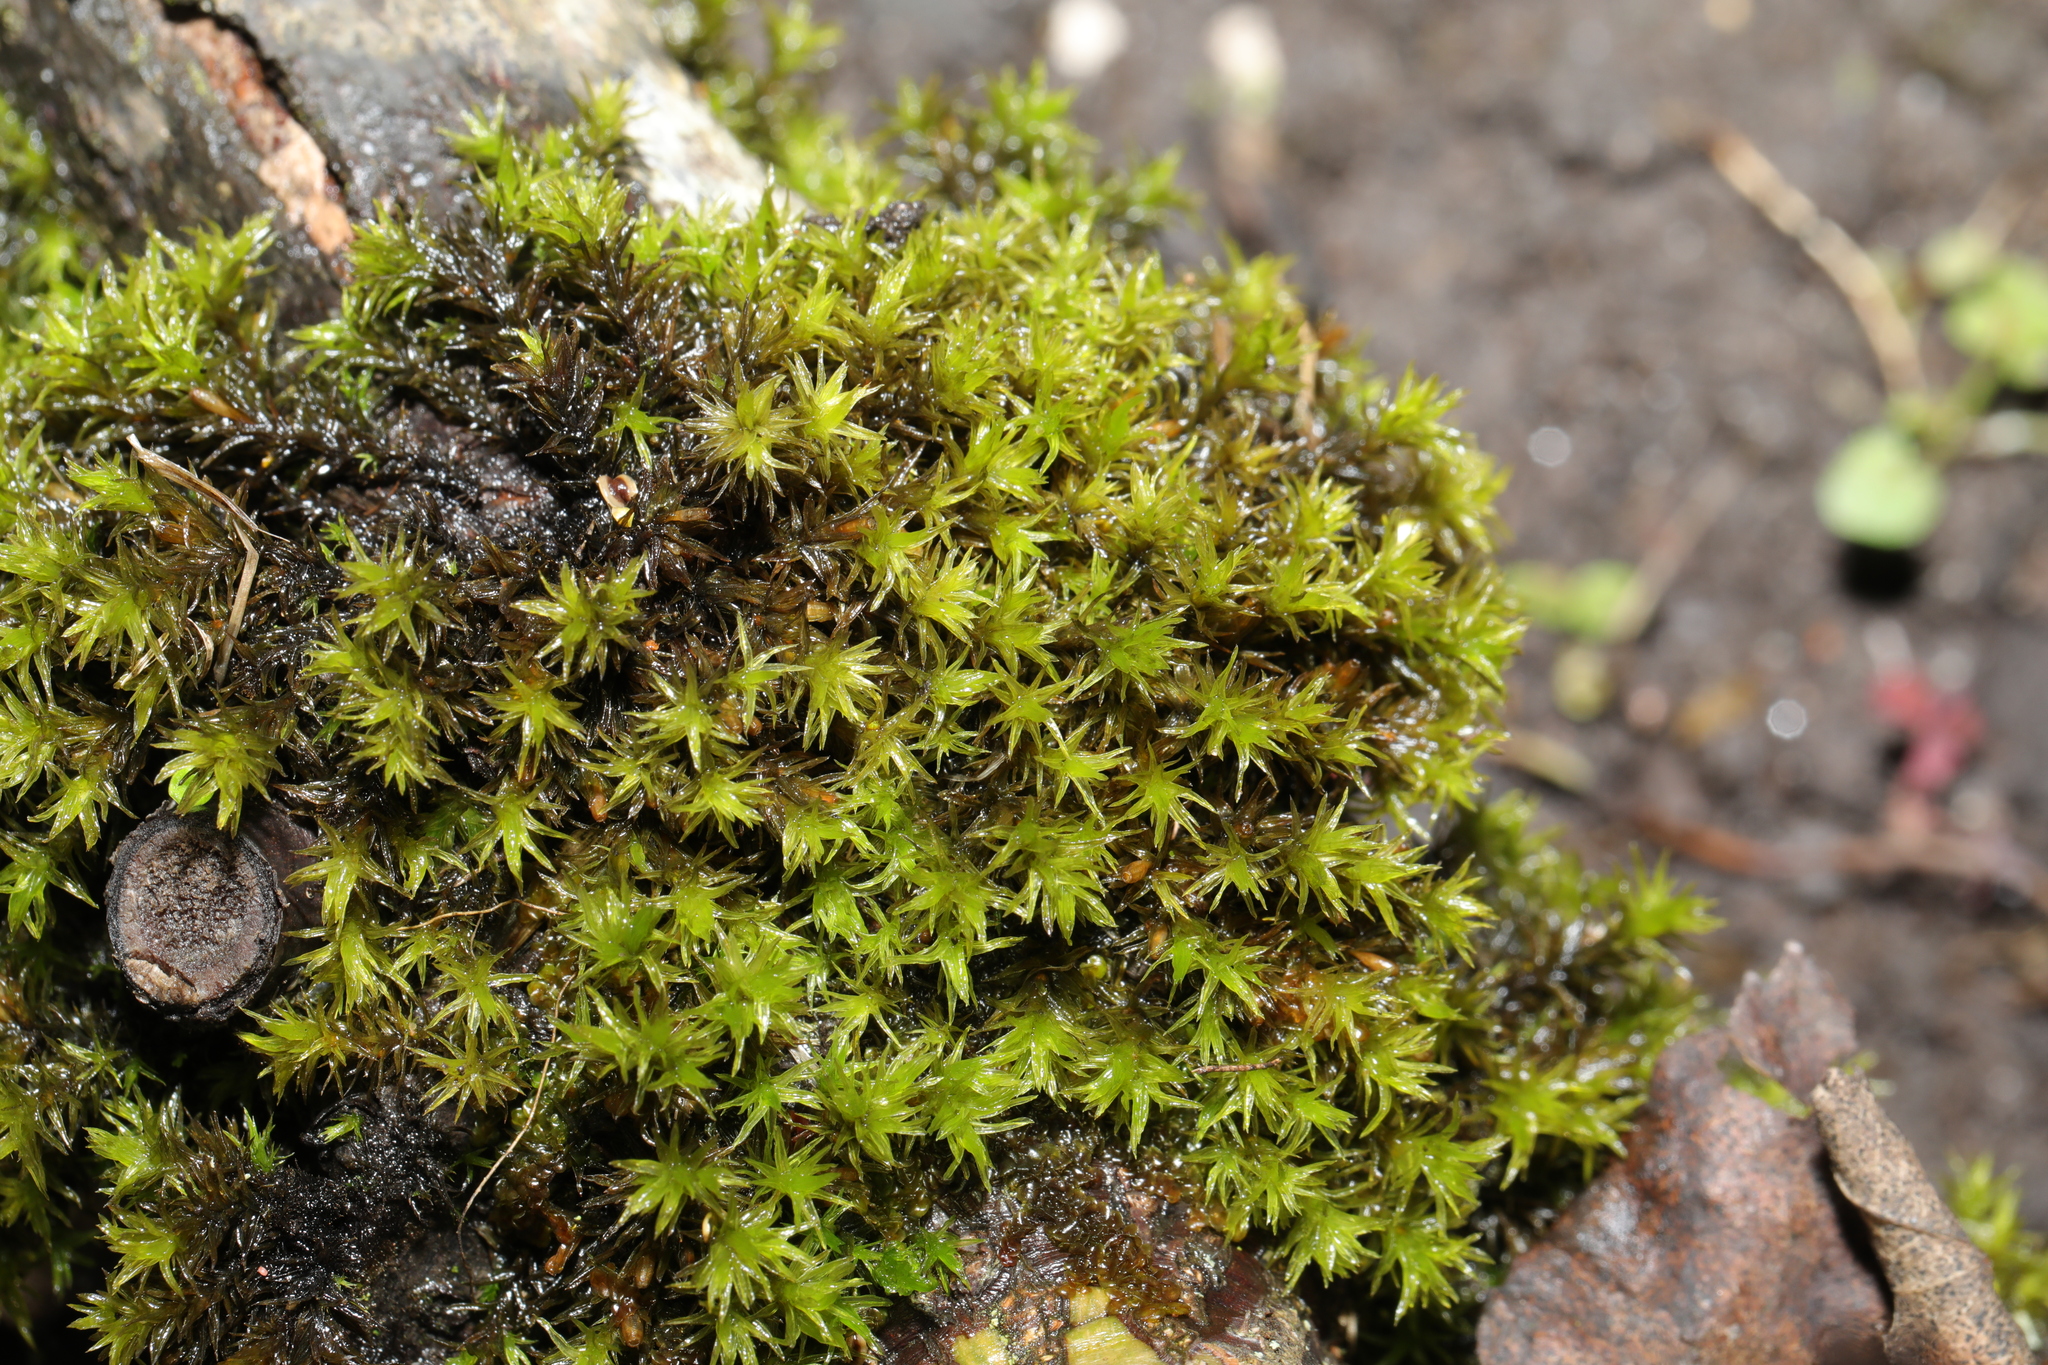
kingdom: Plantae
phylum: Bryophyta
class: Bryopsida
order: Orthotrichales
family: Orthotrichaceae
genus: Lewinskya
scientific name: Lewinskya affinis
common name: Wood bristle-moss
